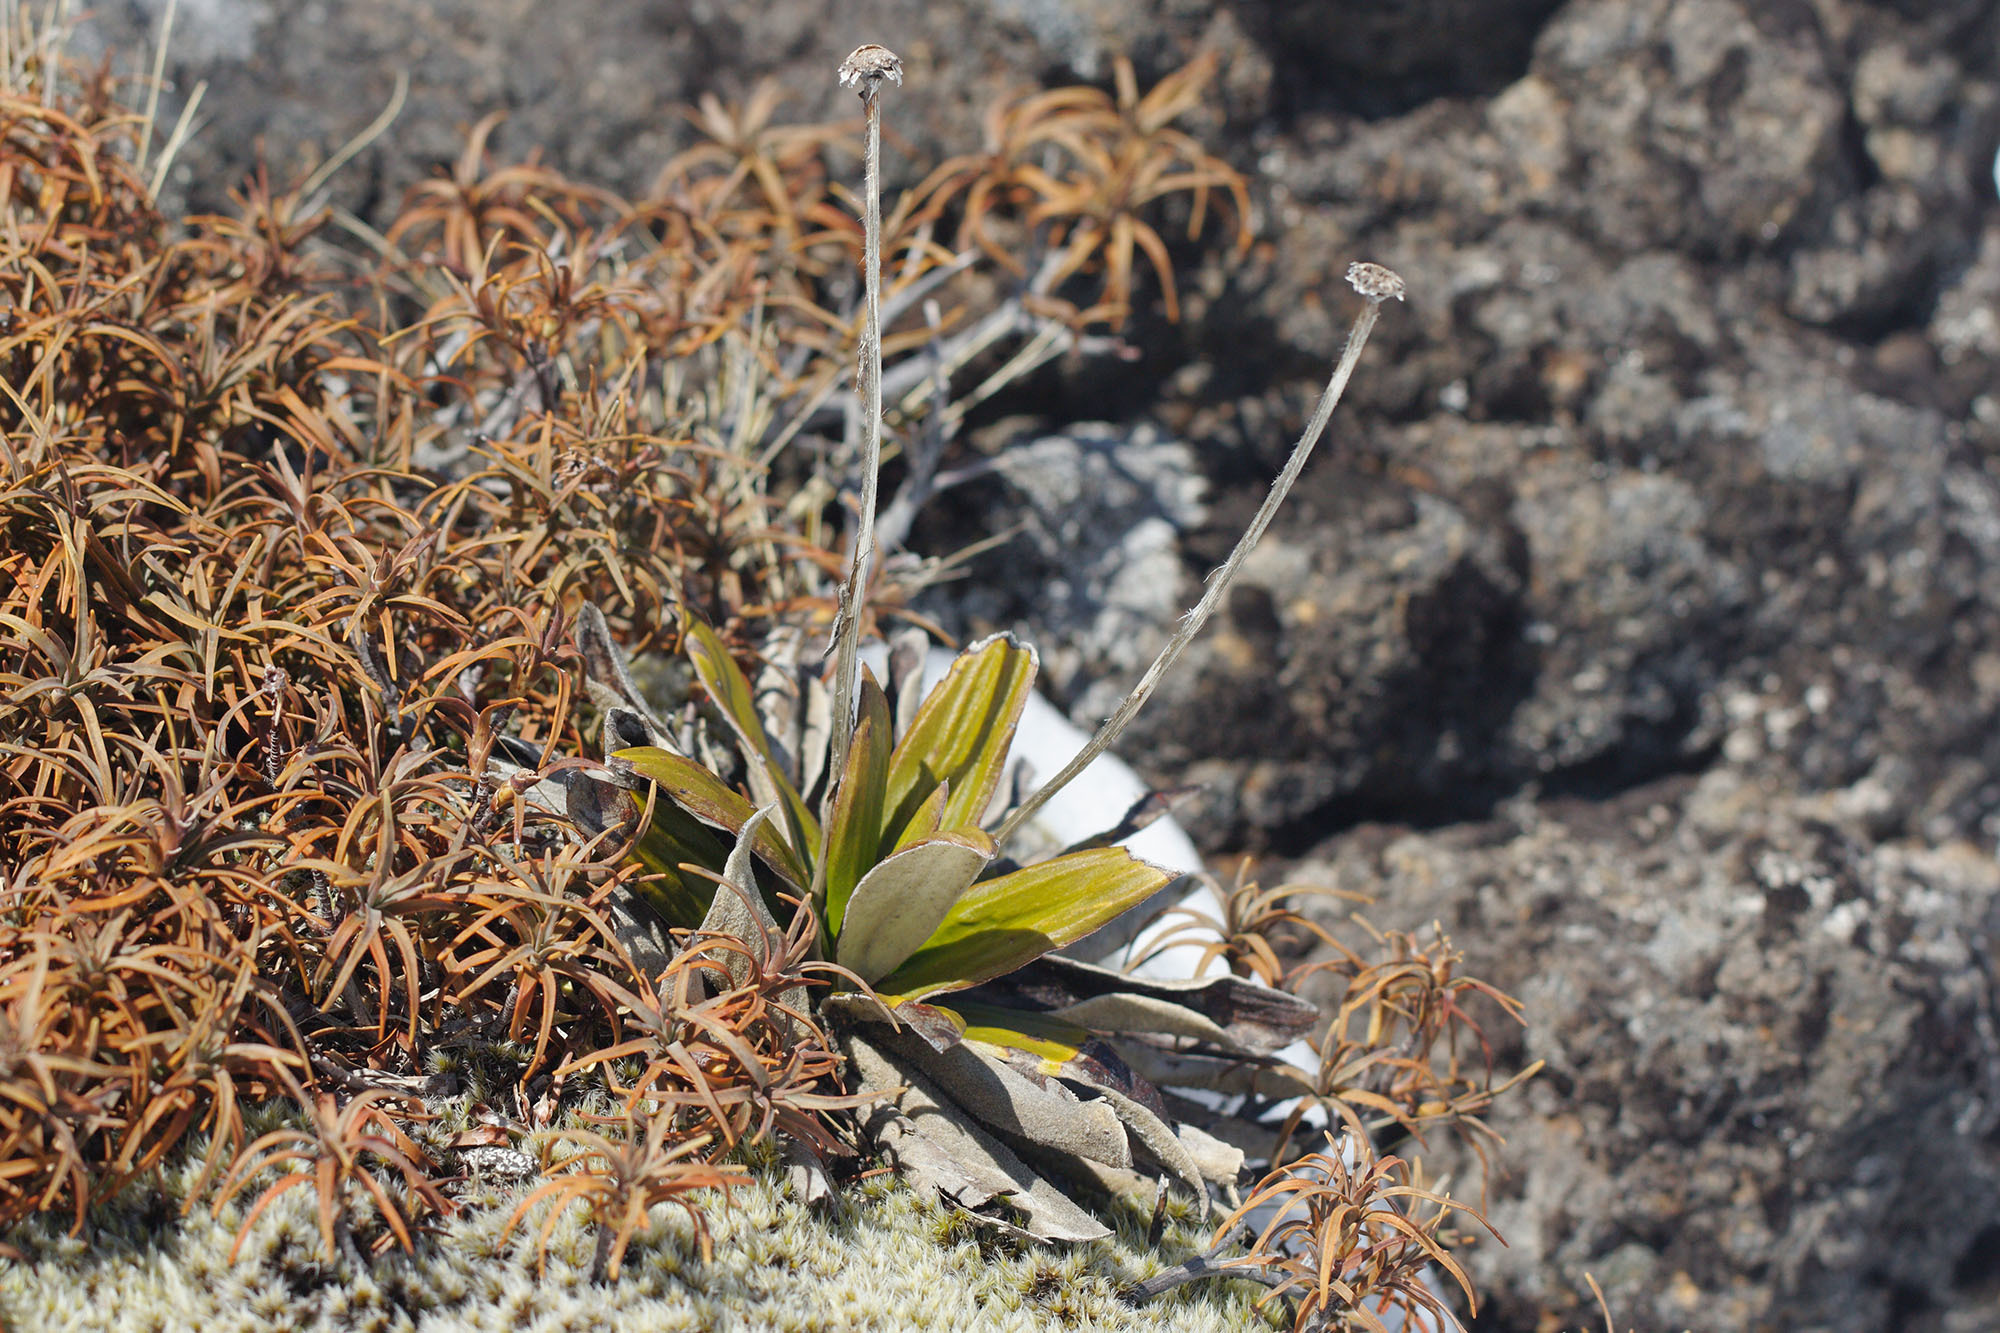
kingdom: Plantae
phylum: Tracheophyta
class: Magnoliopsida
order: Asterales
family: Asteraceae
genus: Celmisia
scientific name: Celmisia spectabilis
